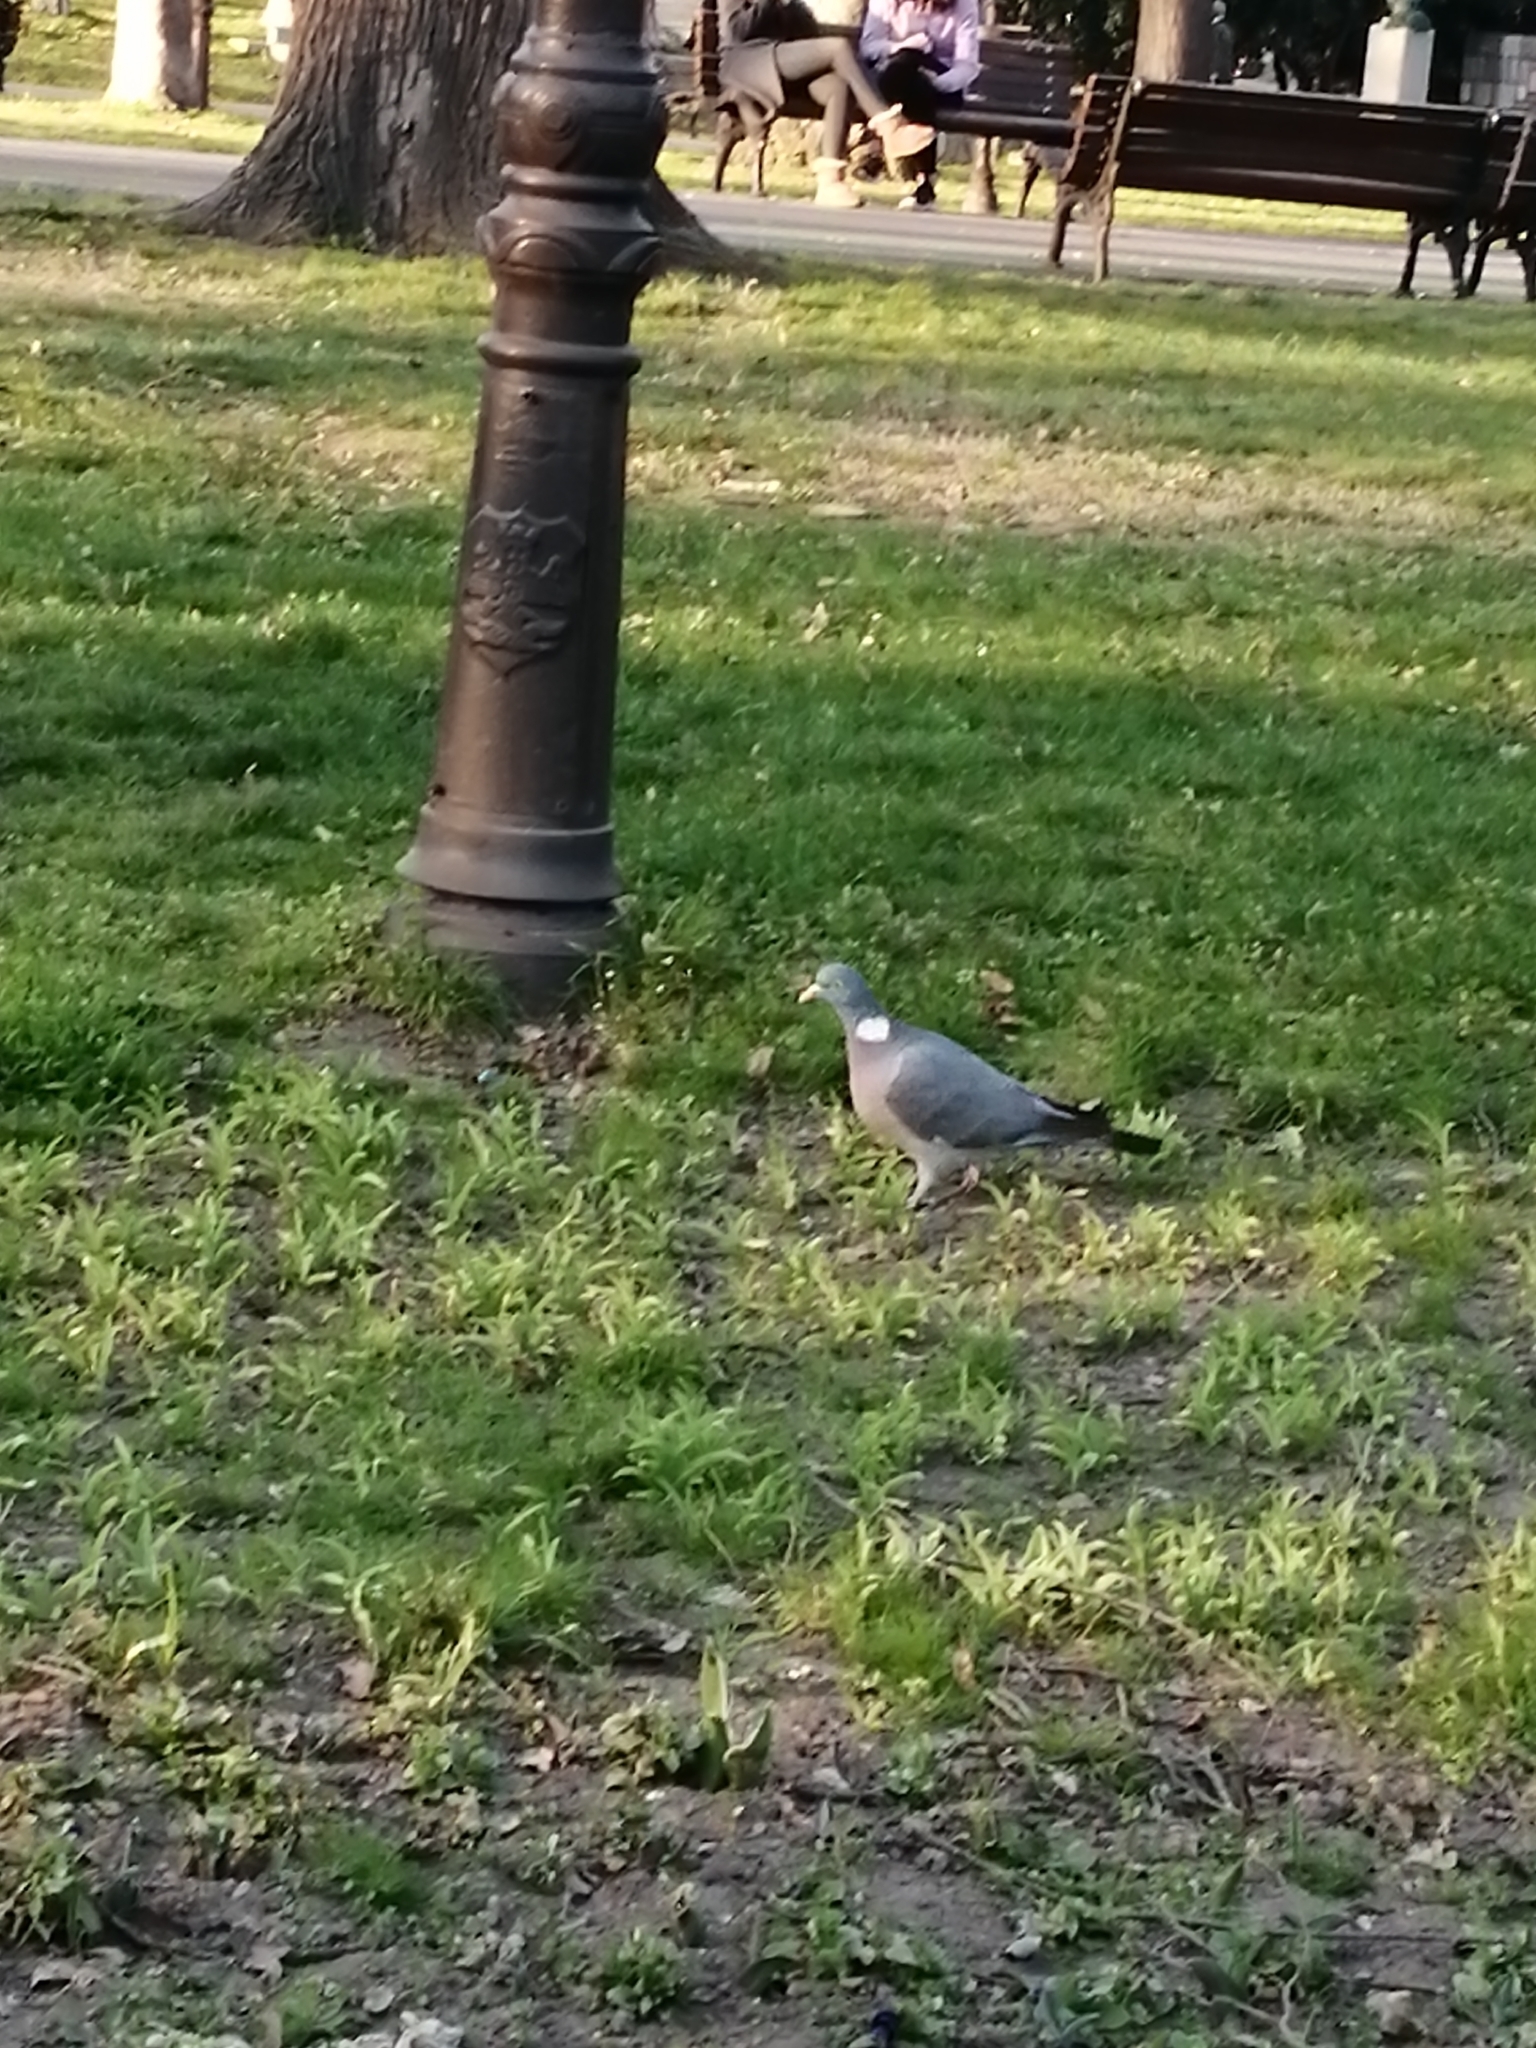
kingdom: Animalia
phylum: Chordata
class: Aves
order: Columbiformes
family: Columbidae
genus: Columba
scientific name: Columba palumbus
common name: Common wood pigeon
